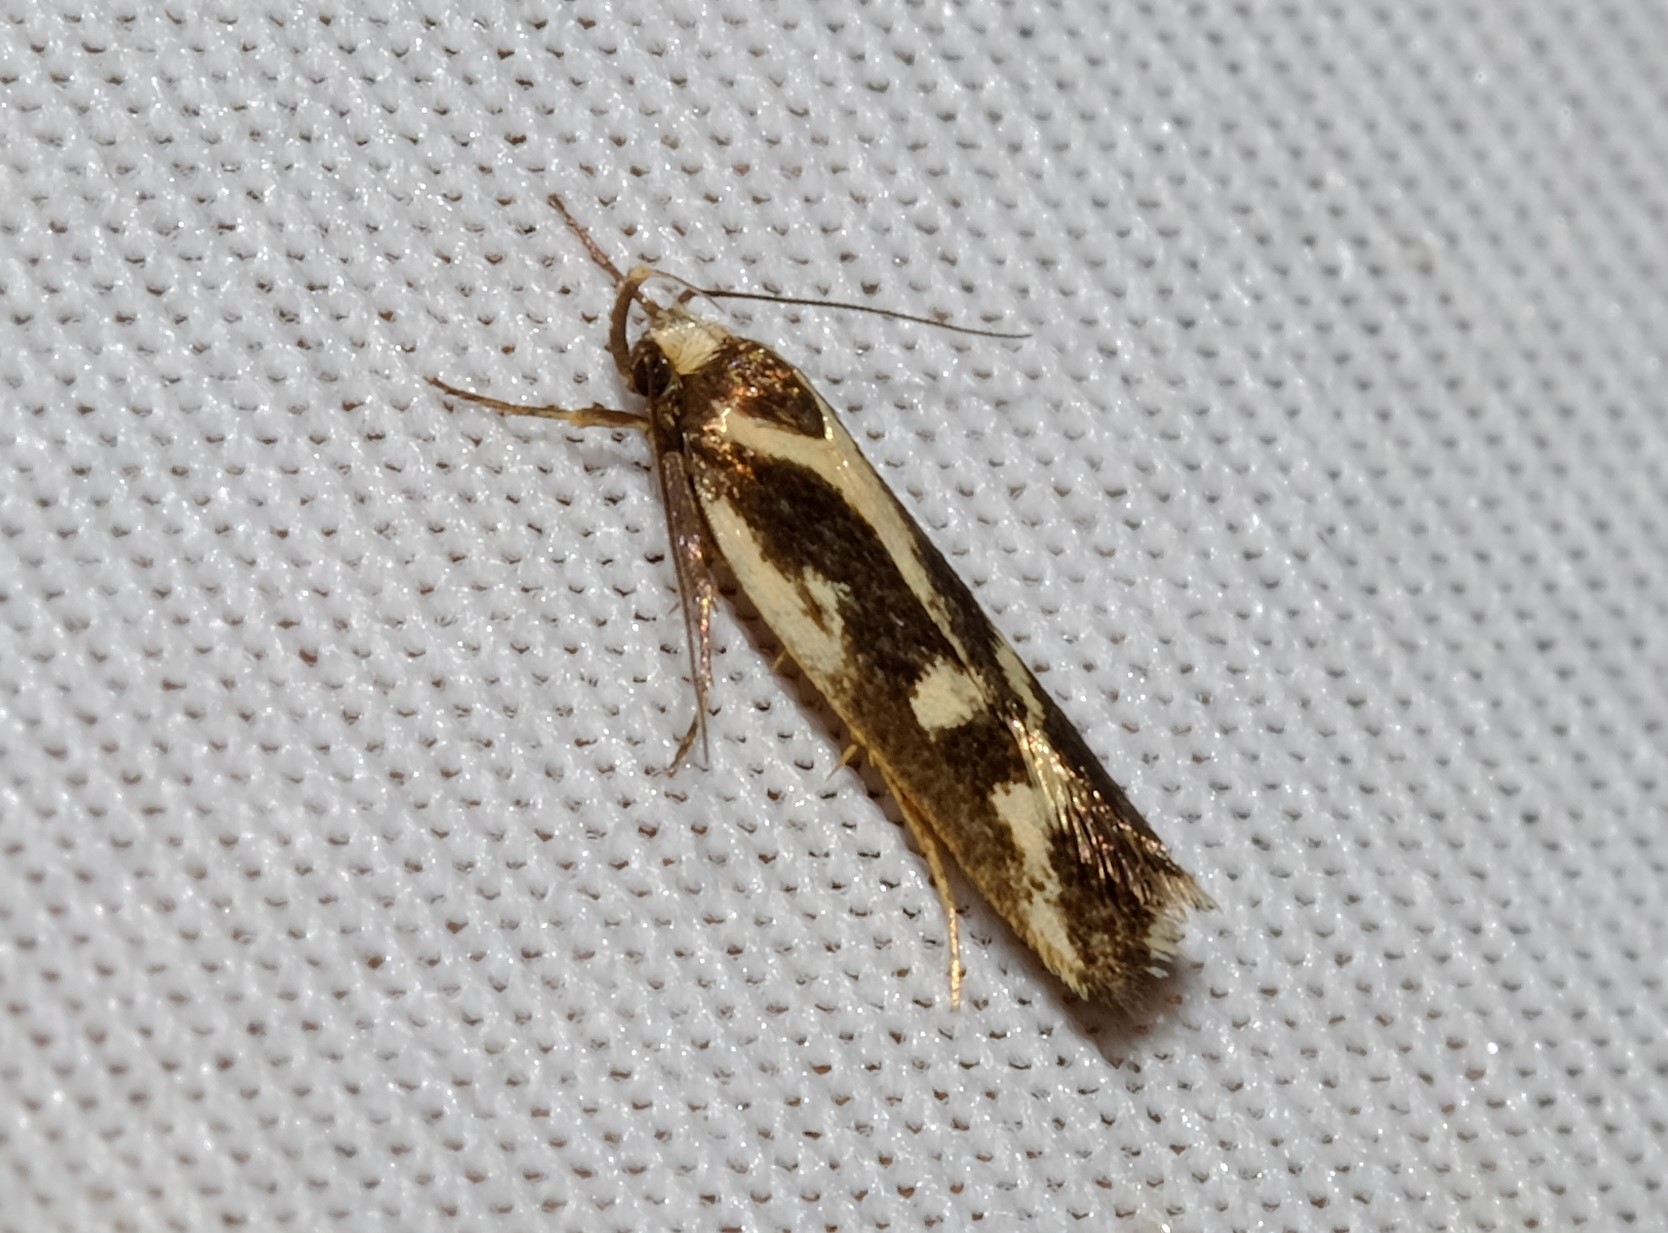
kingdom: Animalia
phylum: Arthropoda
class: Insecta
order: Lepidoptera
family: Oecophoridae
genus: Epithymema
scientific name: Epithymema incomposita
